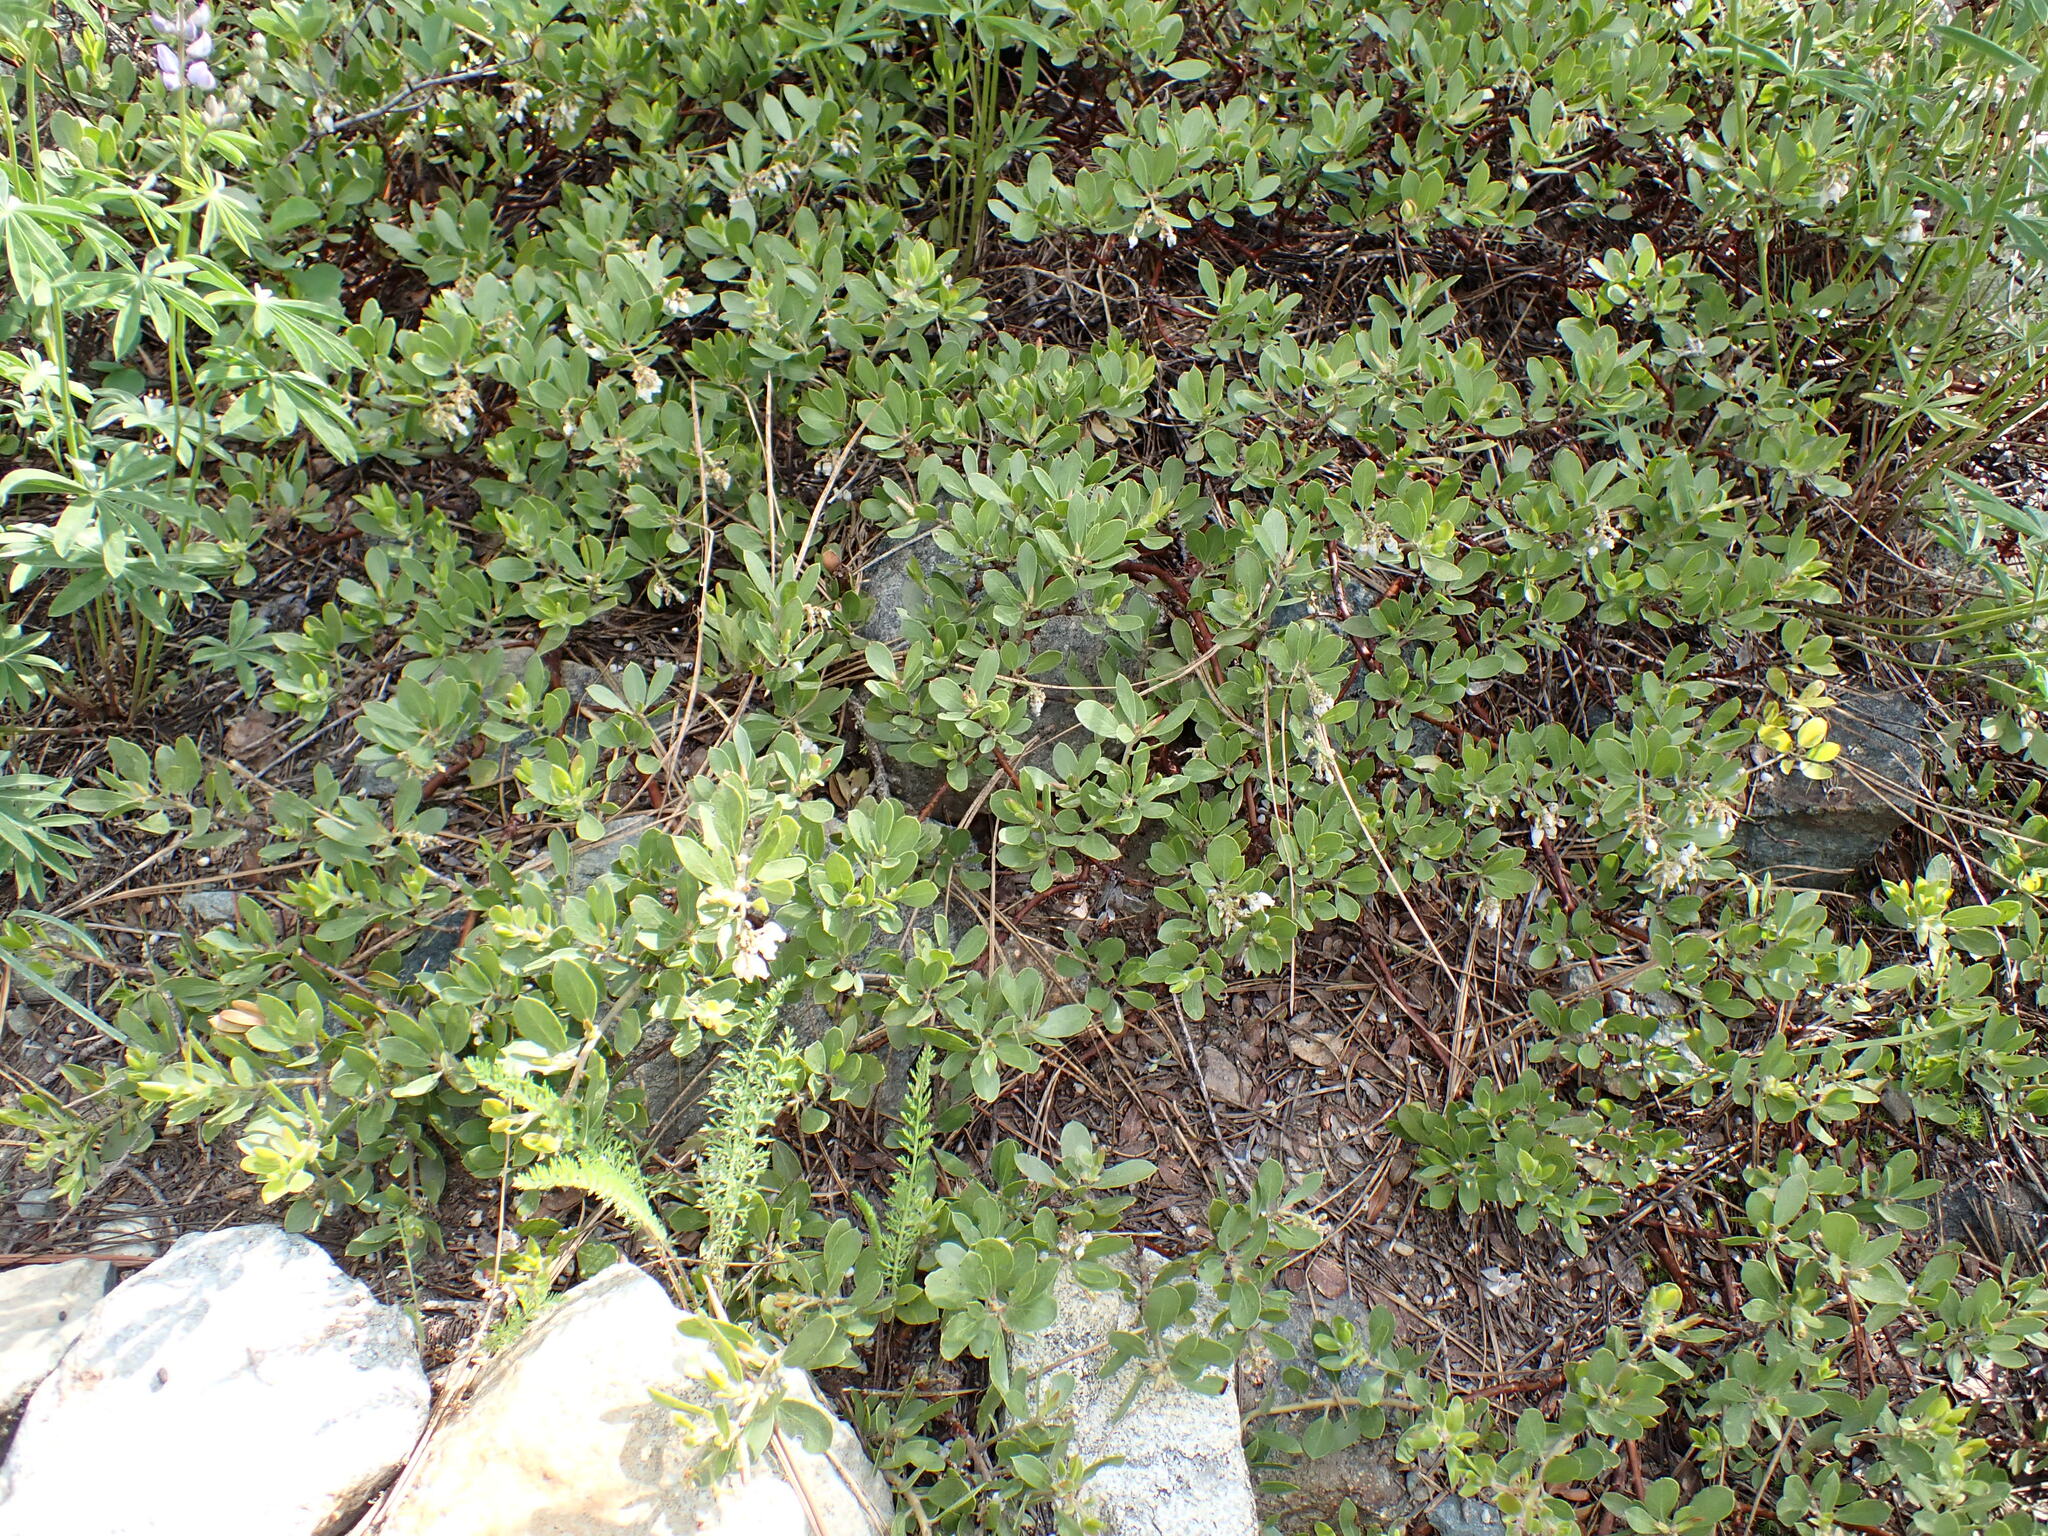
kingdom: Plantae
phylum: Tracheophyta
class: Magnoliopsida
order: Ericales
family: Ericaceae
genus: Arctostaphylos
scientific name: Arctostaphylos nevadensis
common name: Pinemat manzanita
